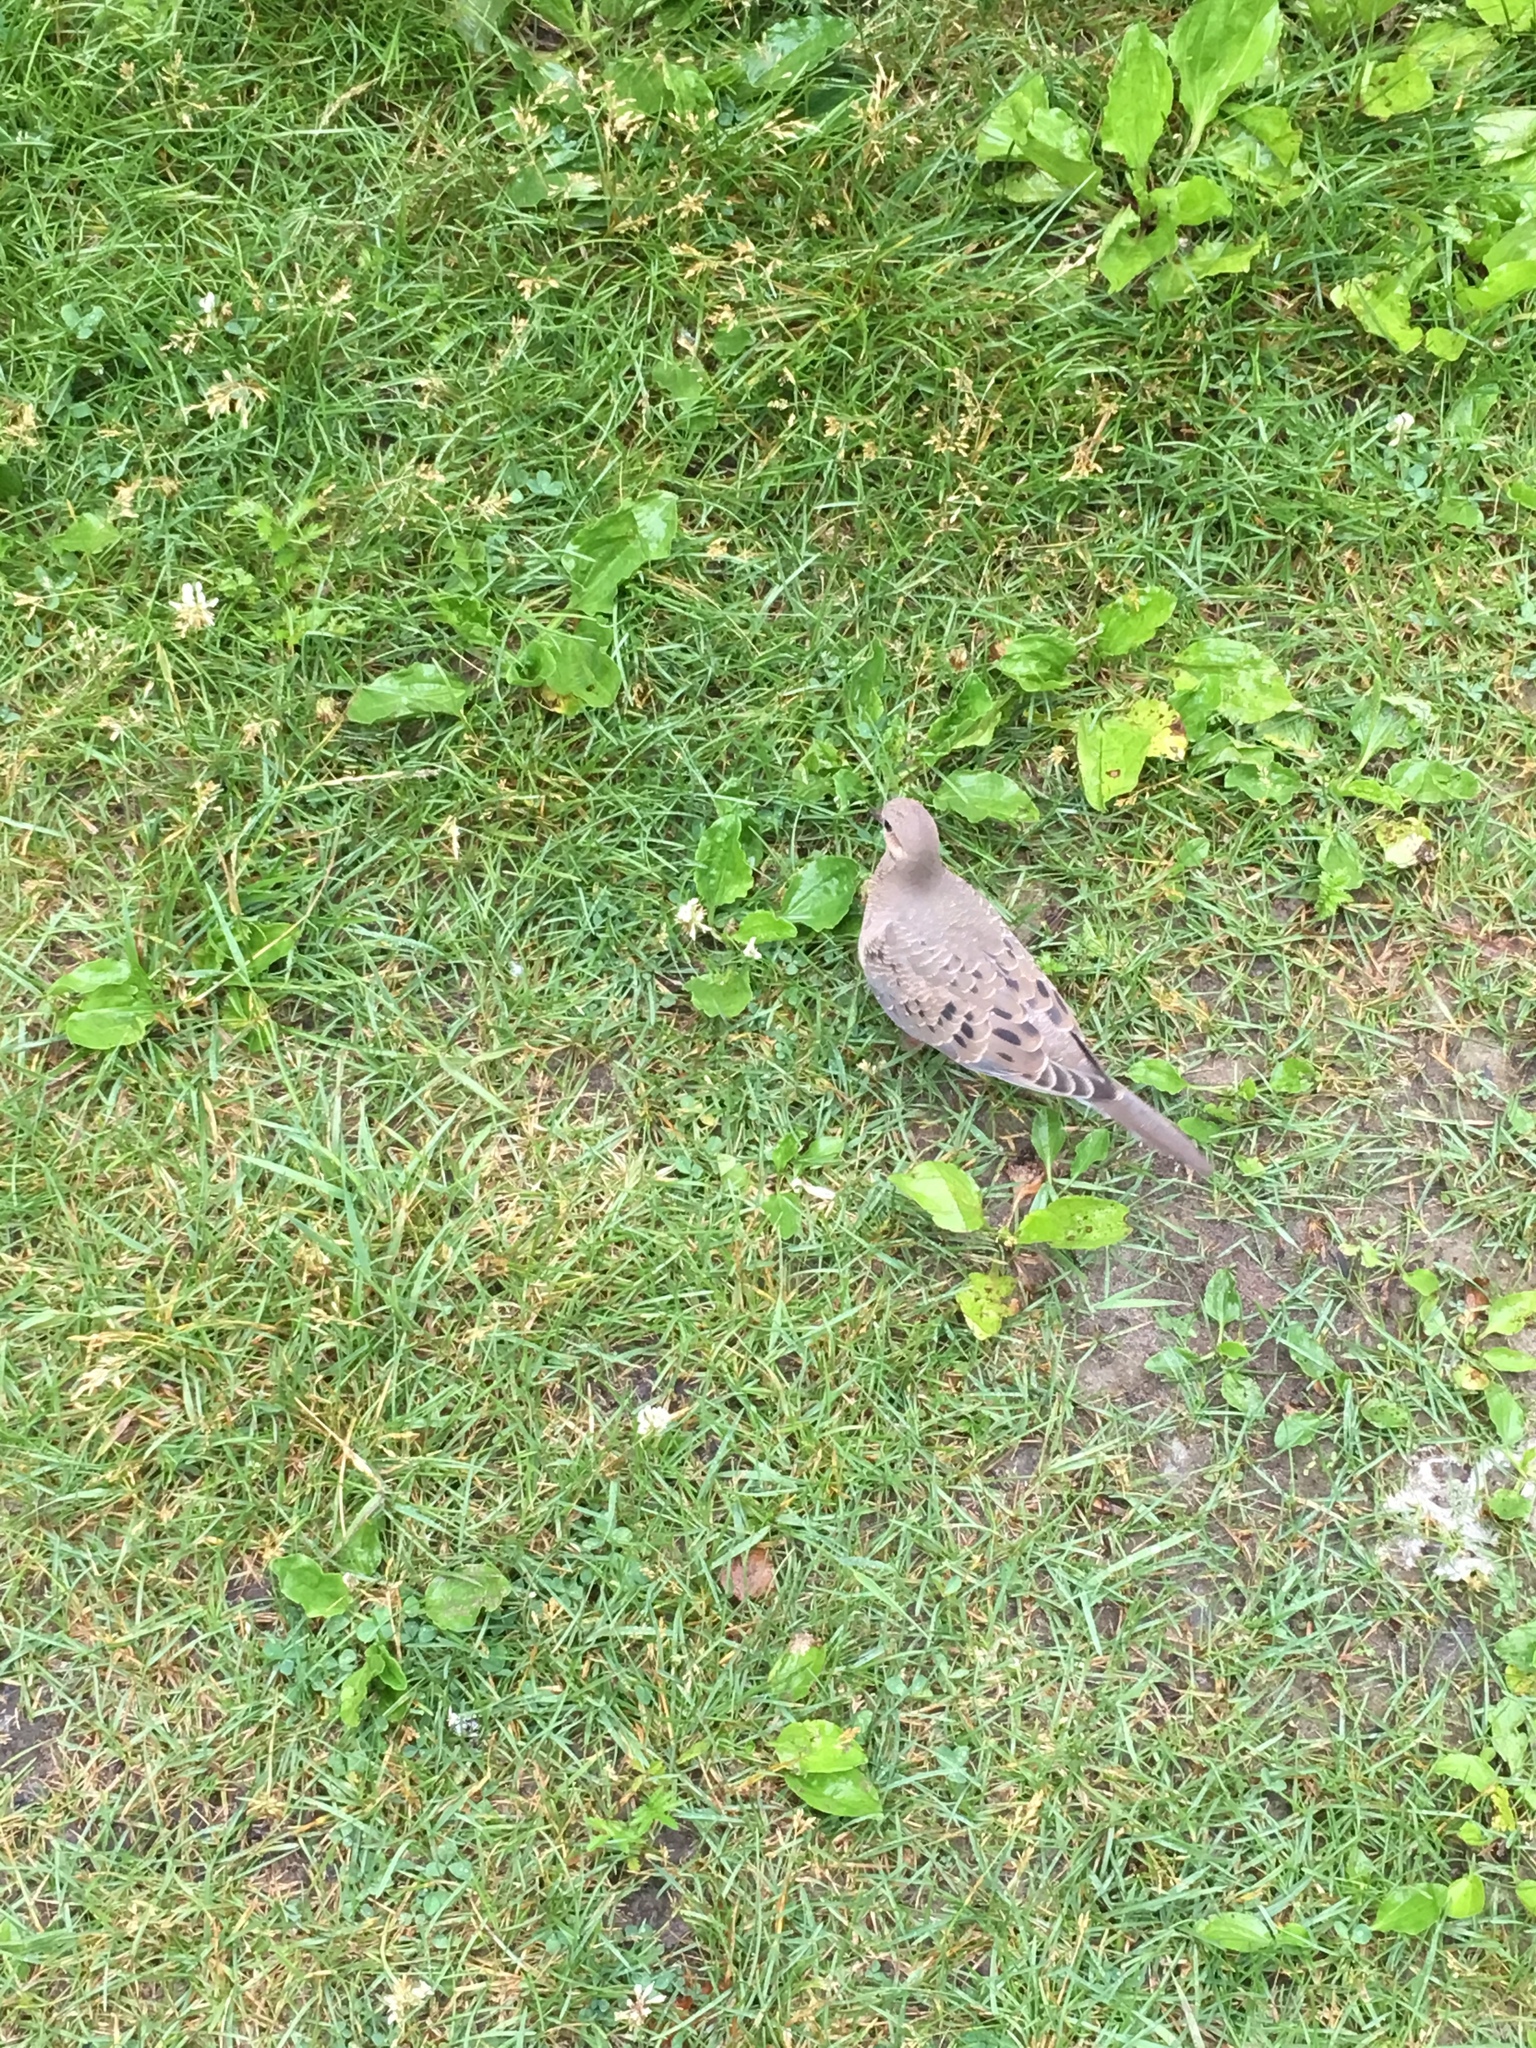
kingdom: Animalia
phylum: Chordata
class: Aves
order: Columbiformes
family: Columbidae
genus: Zenaida
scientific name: Zenaida macroura
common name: Mourning dove
